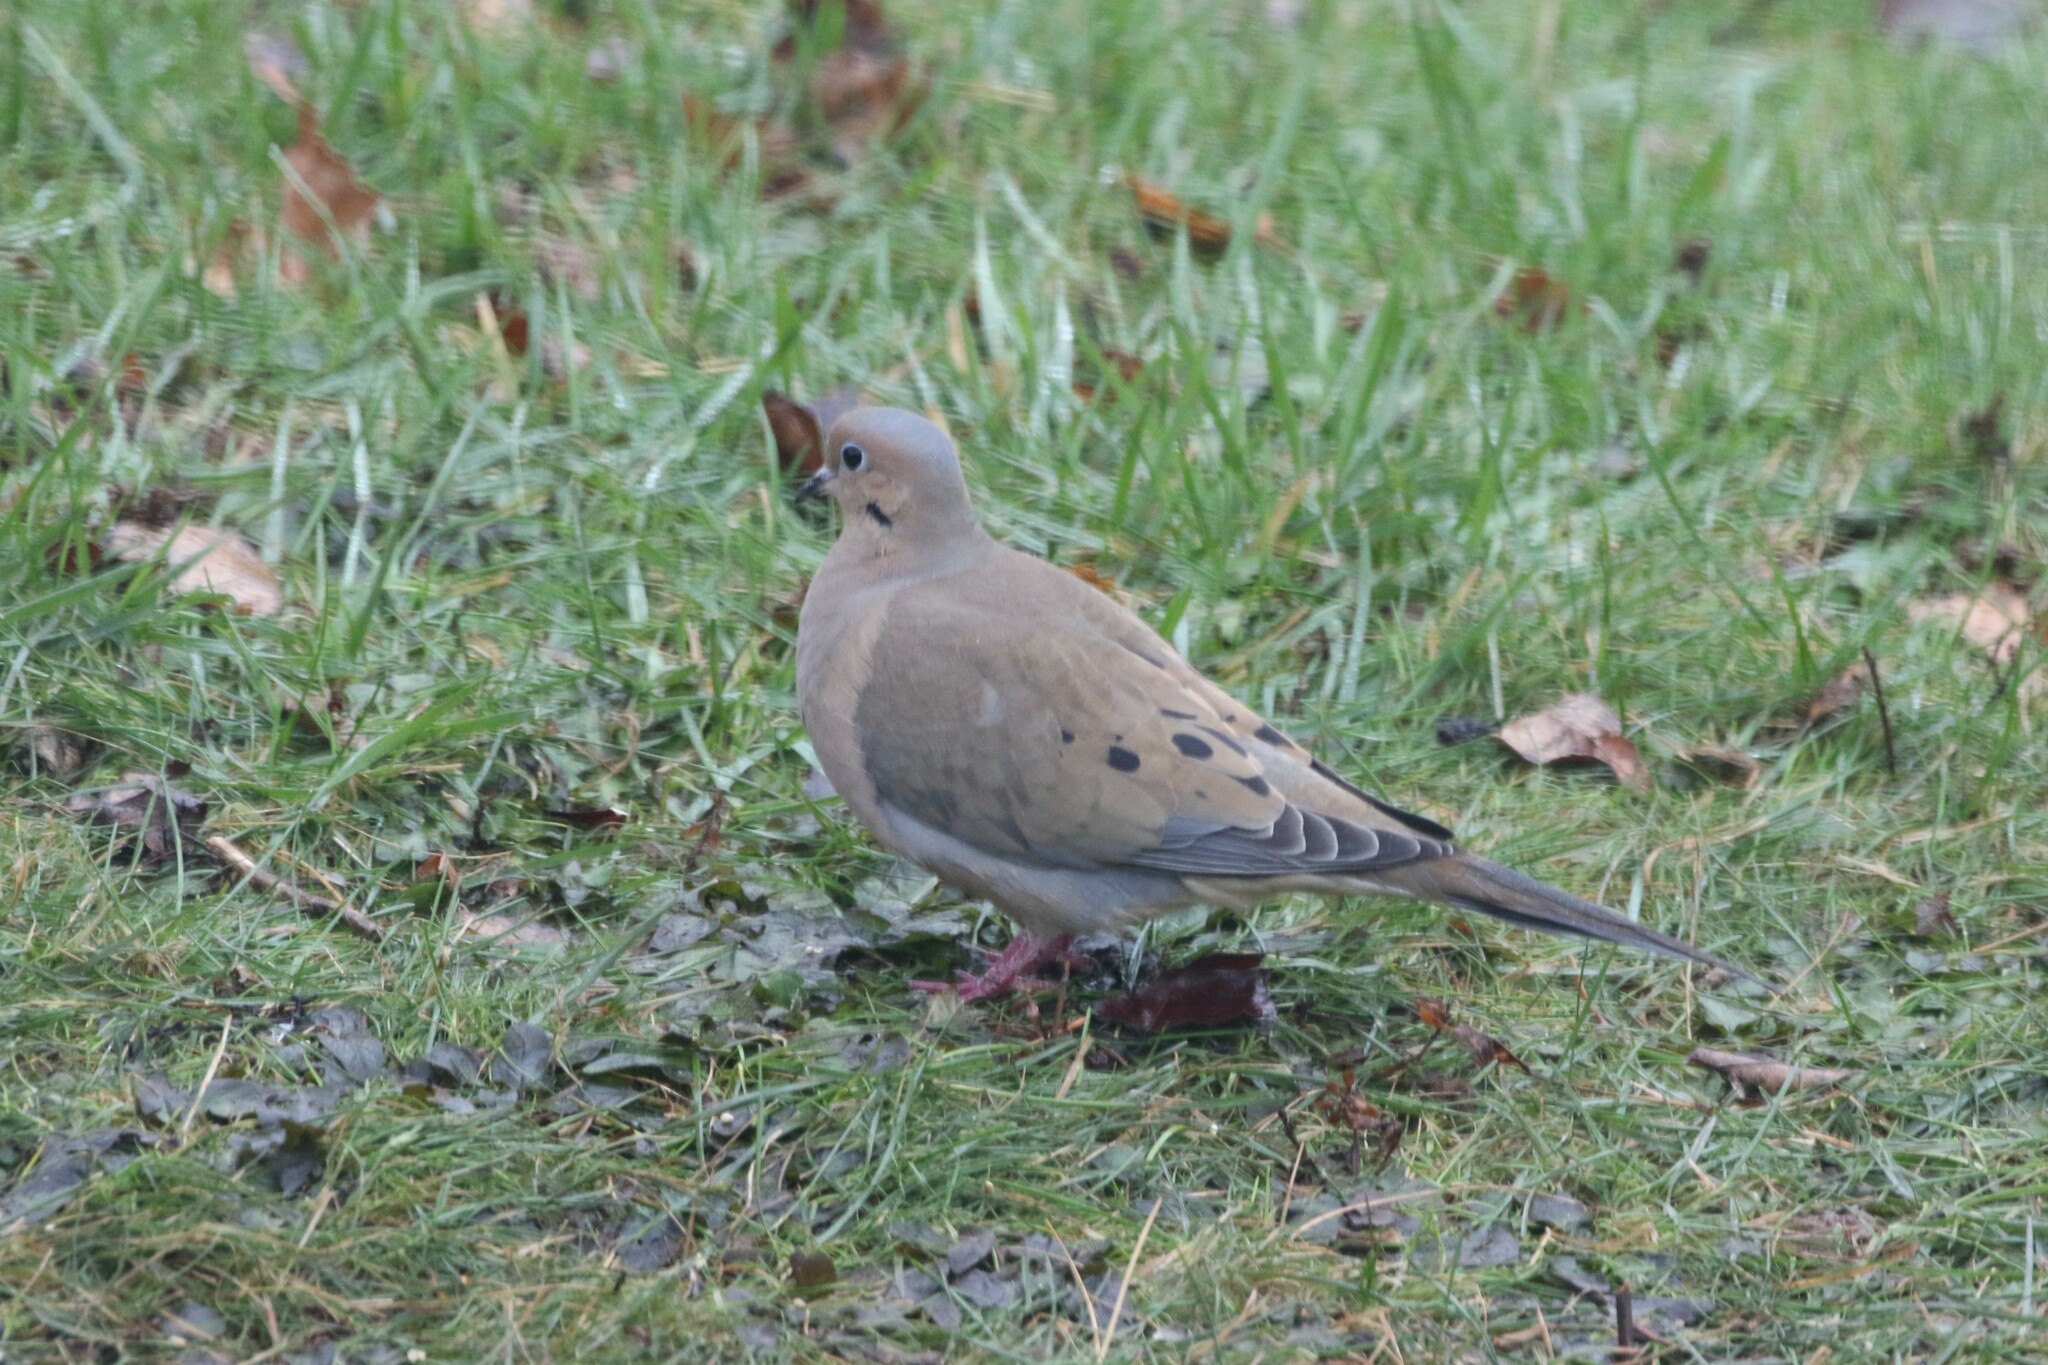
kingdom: Animalia
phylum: Chordata
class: Aves
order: Columbiformes
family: Columbidae
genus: Zenaida
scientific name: Zenaida macroura
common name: Mourning dove
